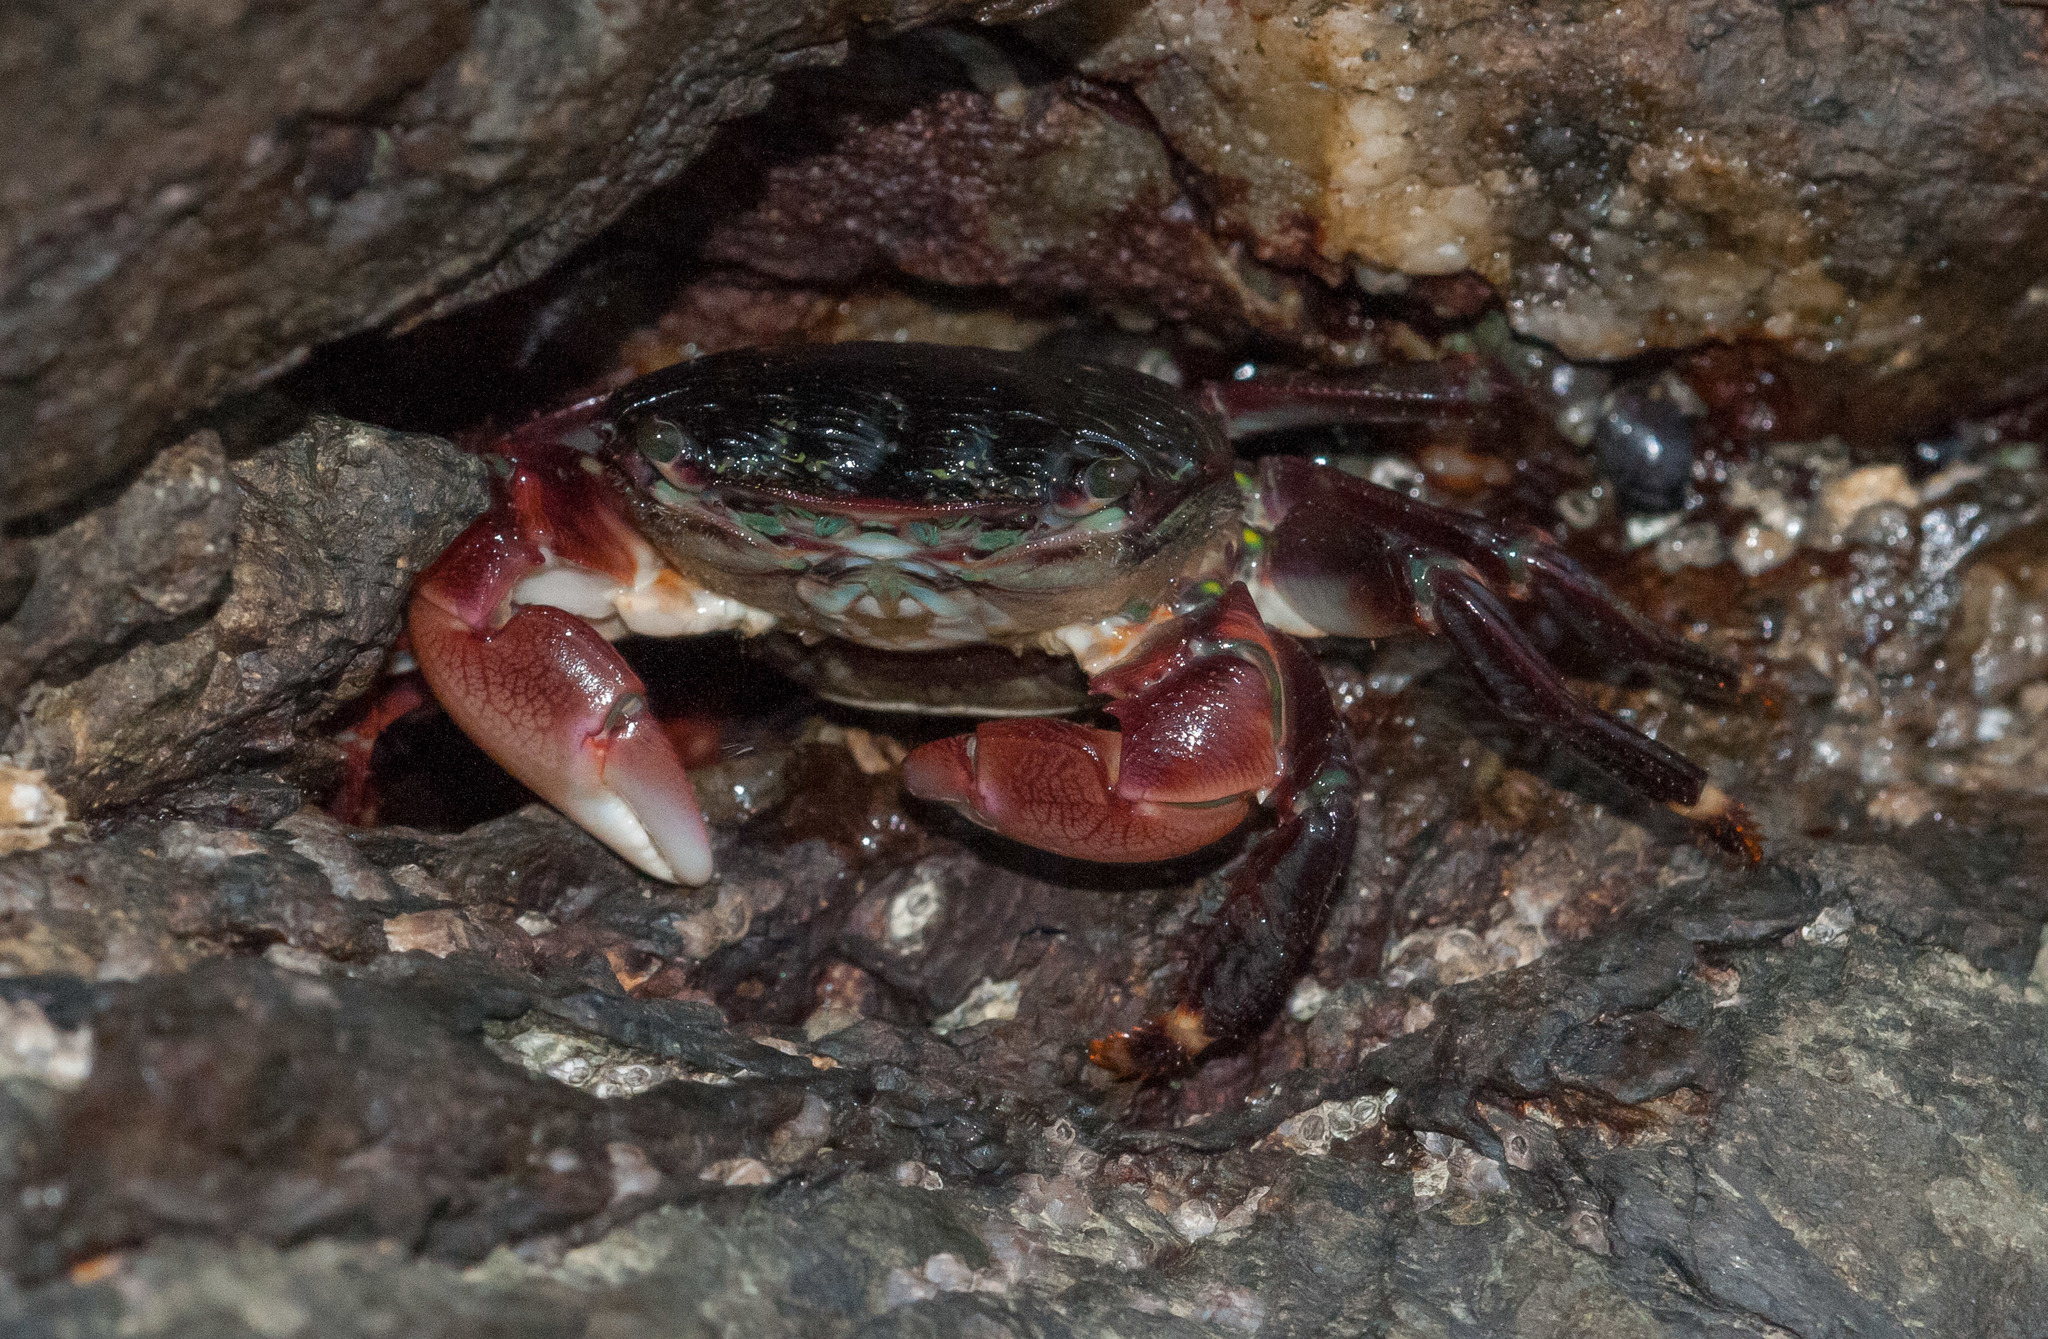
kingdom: Animalia
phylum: Arthropoda
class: Malacostraca
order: Decapoda
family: Grapsidae
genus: Pachygrapsus
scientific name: Pachygrapsus crassipes
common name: Striped shore crab
